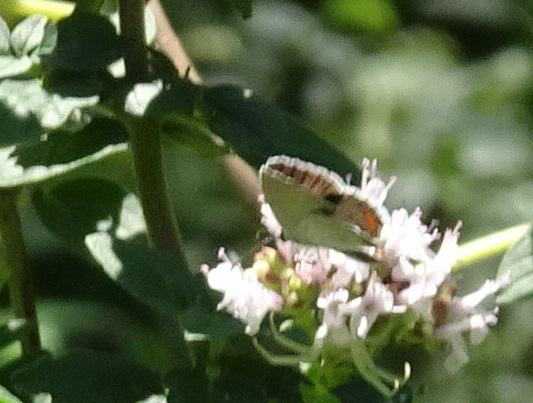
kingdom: Animalia
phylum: Arthropoda
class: Insecta
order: Lepidoptera
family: Lycaenidae
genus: Elkalyce
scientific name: Elkalyce comyntas
